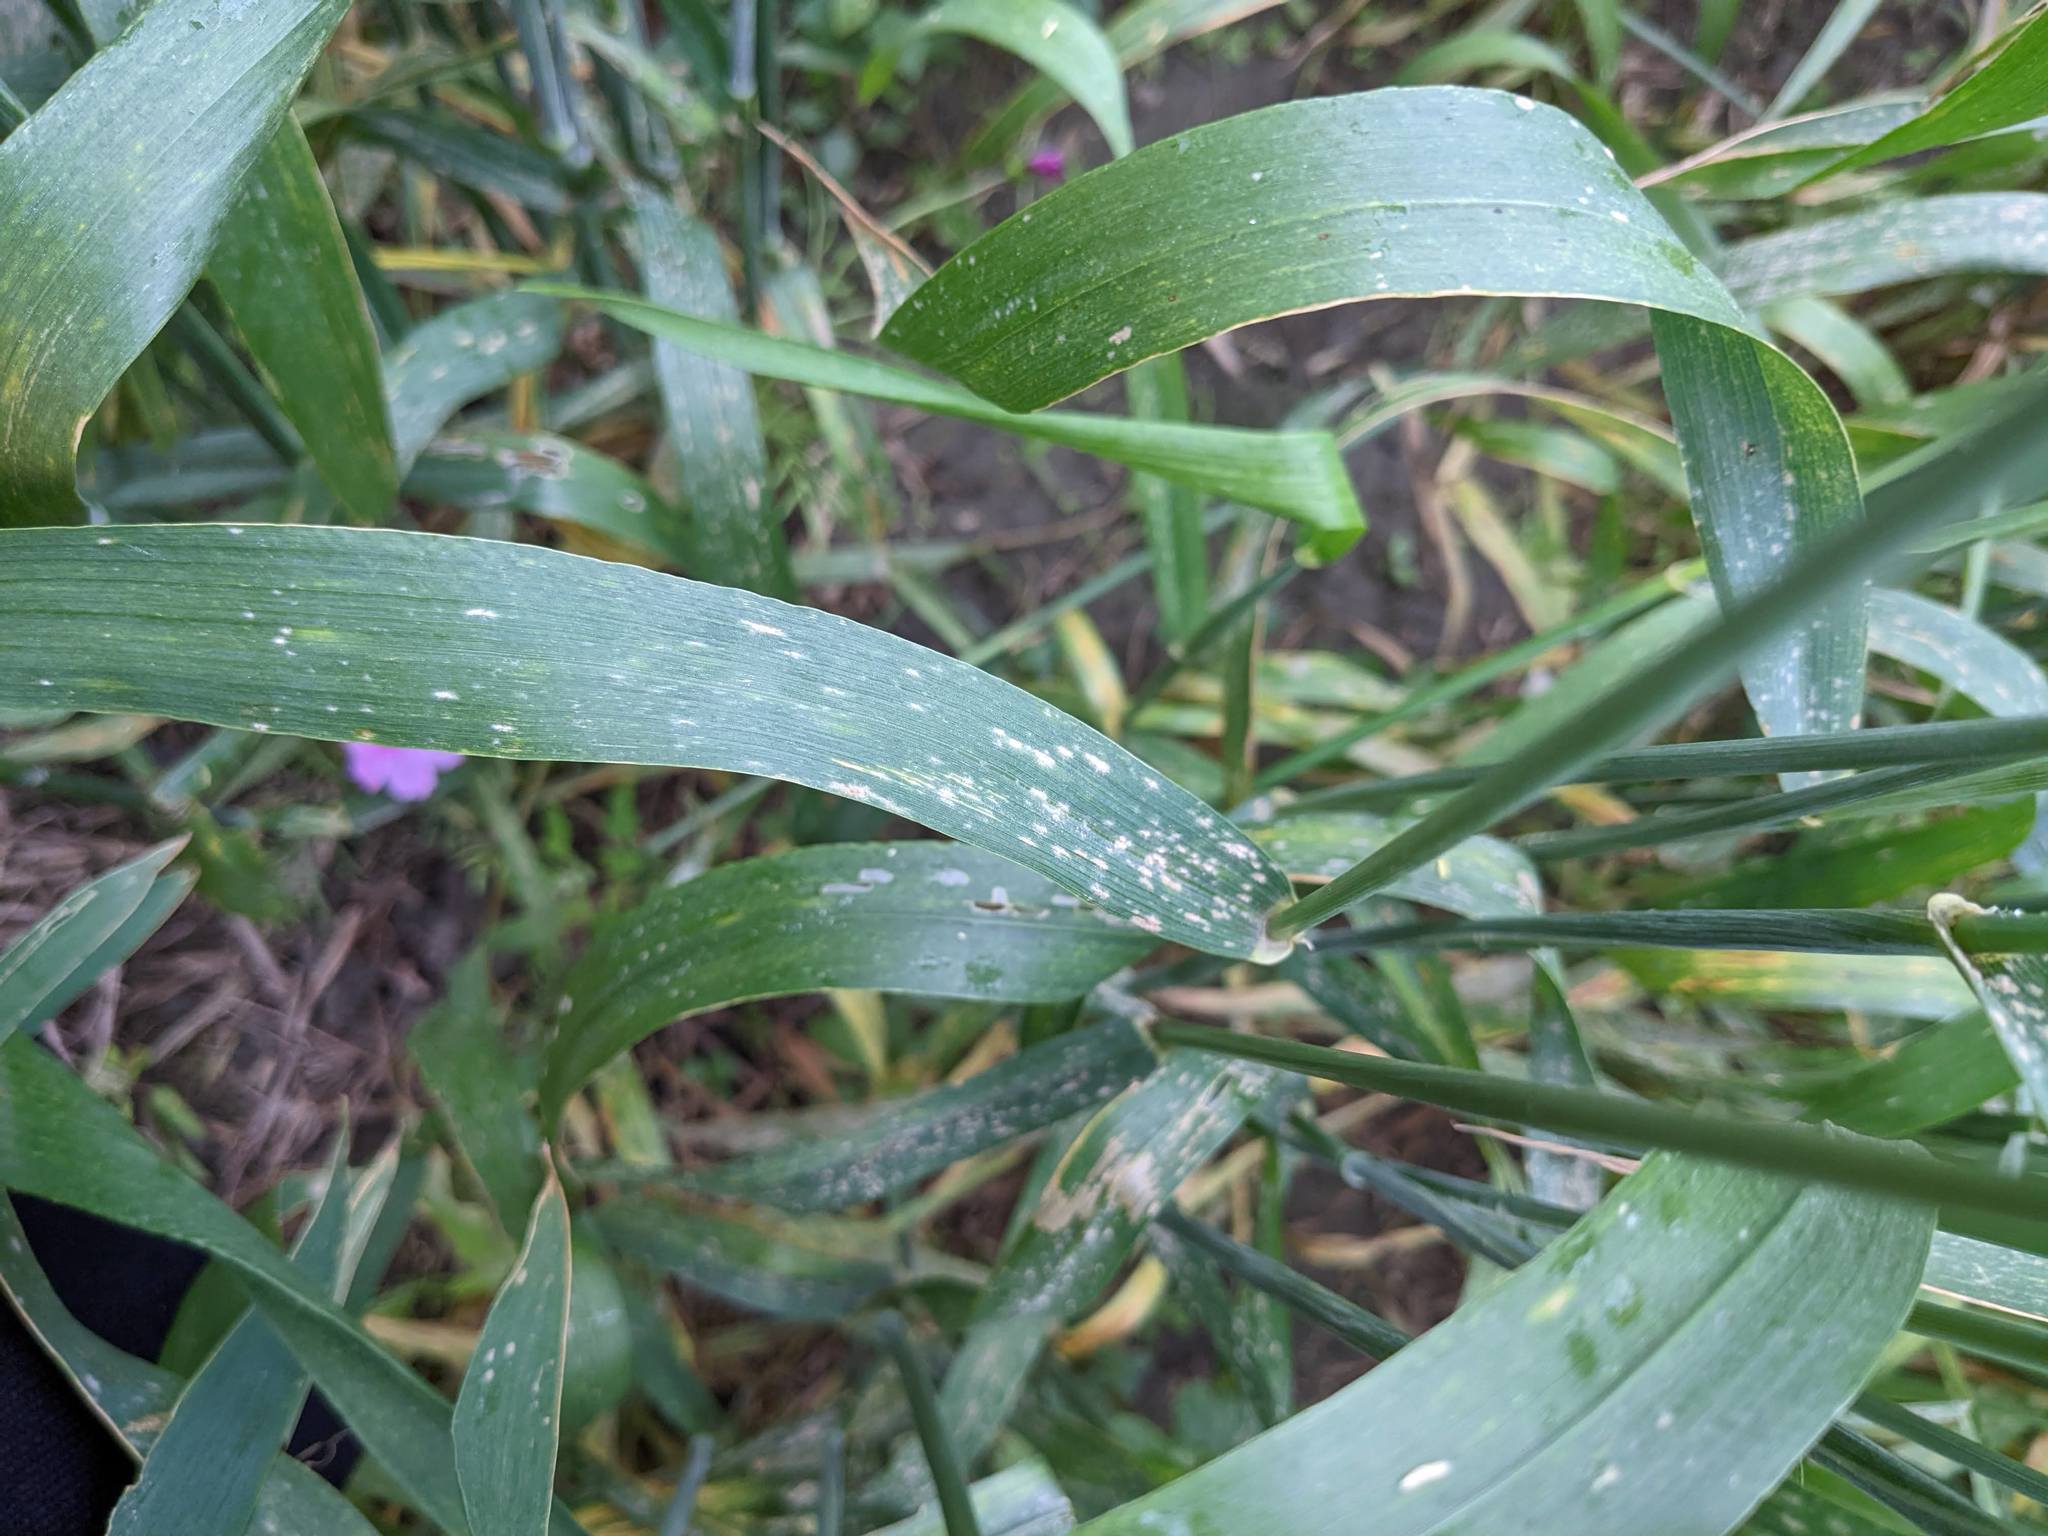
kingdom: Fungi
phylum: Ascomycota
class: Leotiomycetes
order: Helotiales
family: Erysiphaceae
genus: Blumeria
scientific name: Blumeria graminis
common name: Grass and cereal powdery mildew
